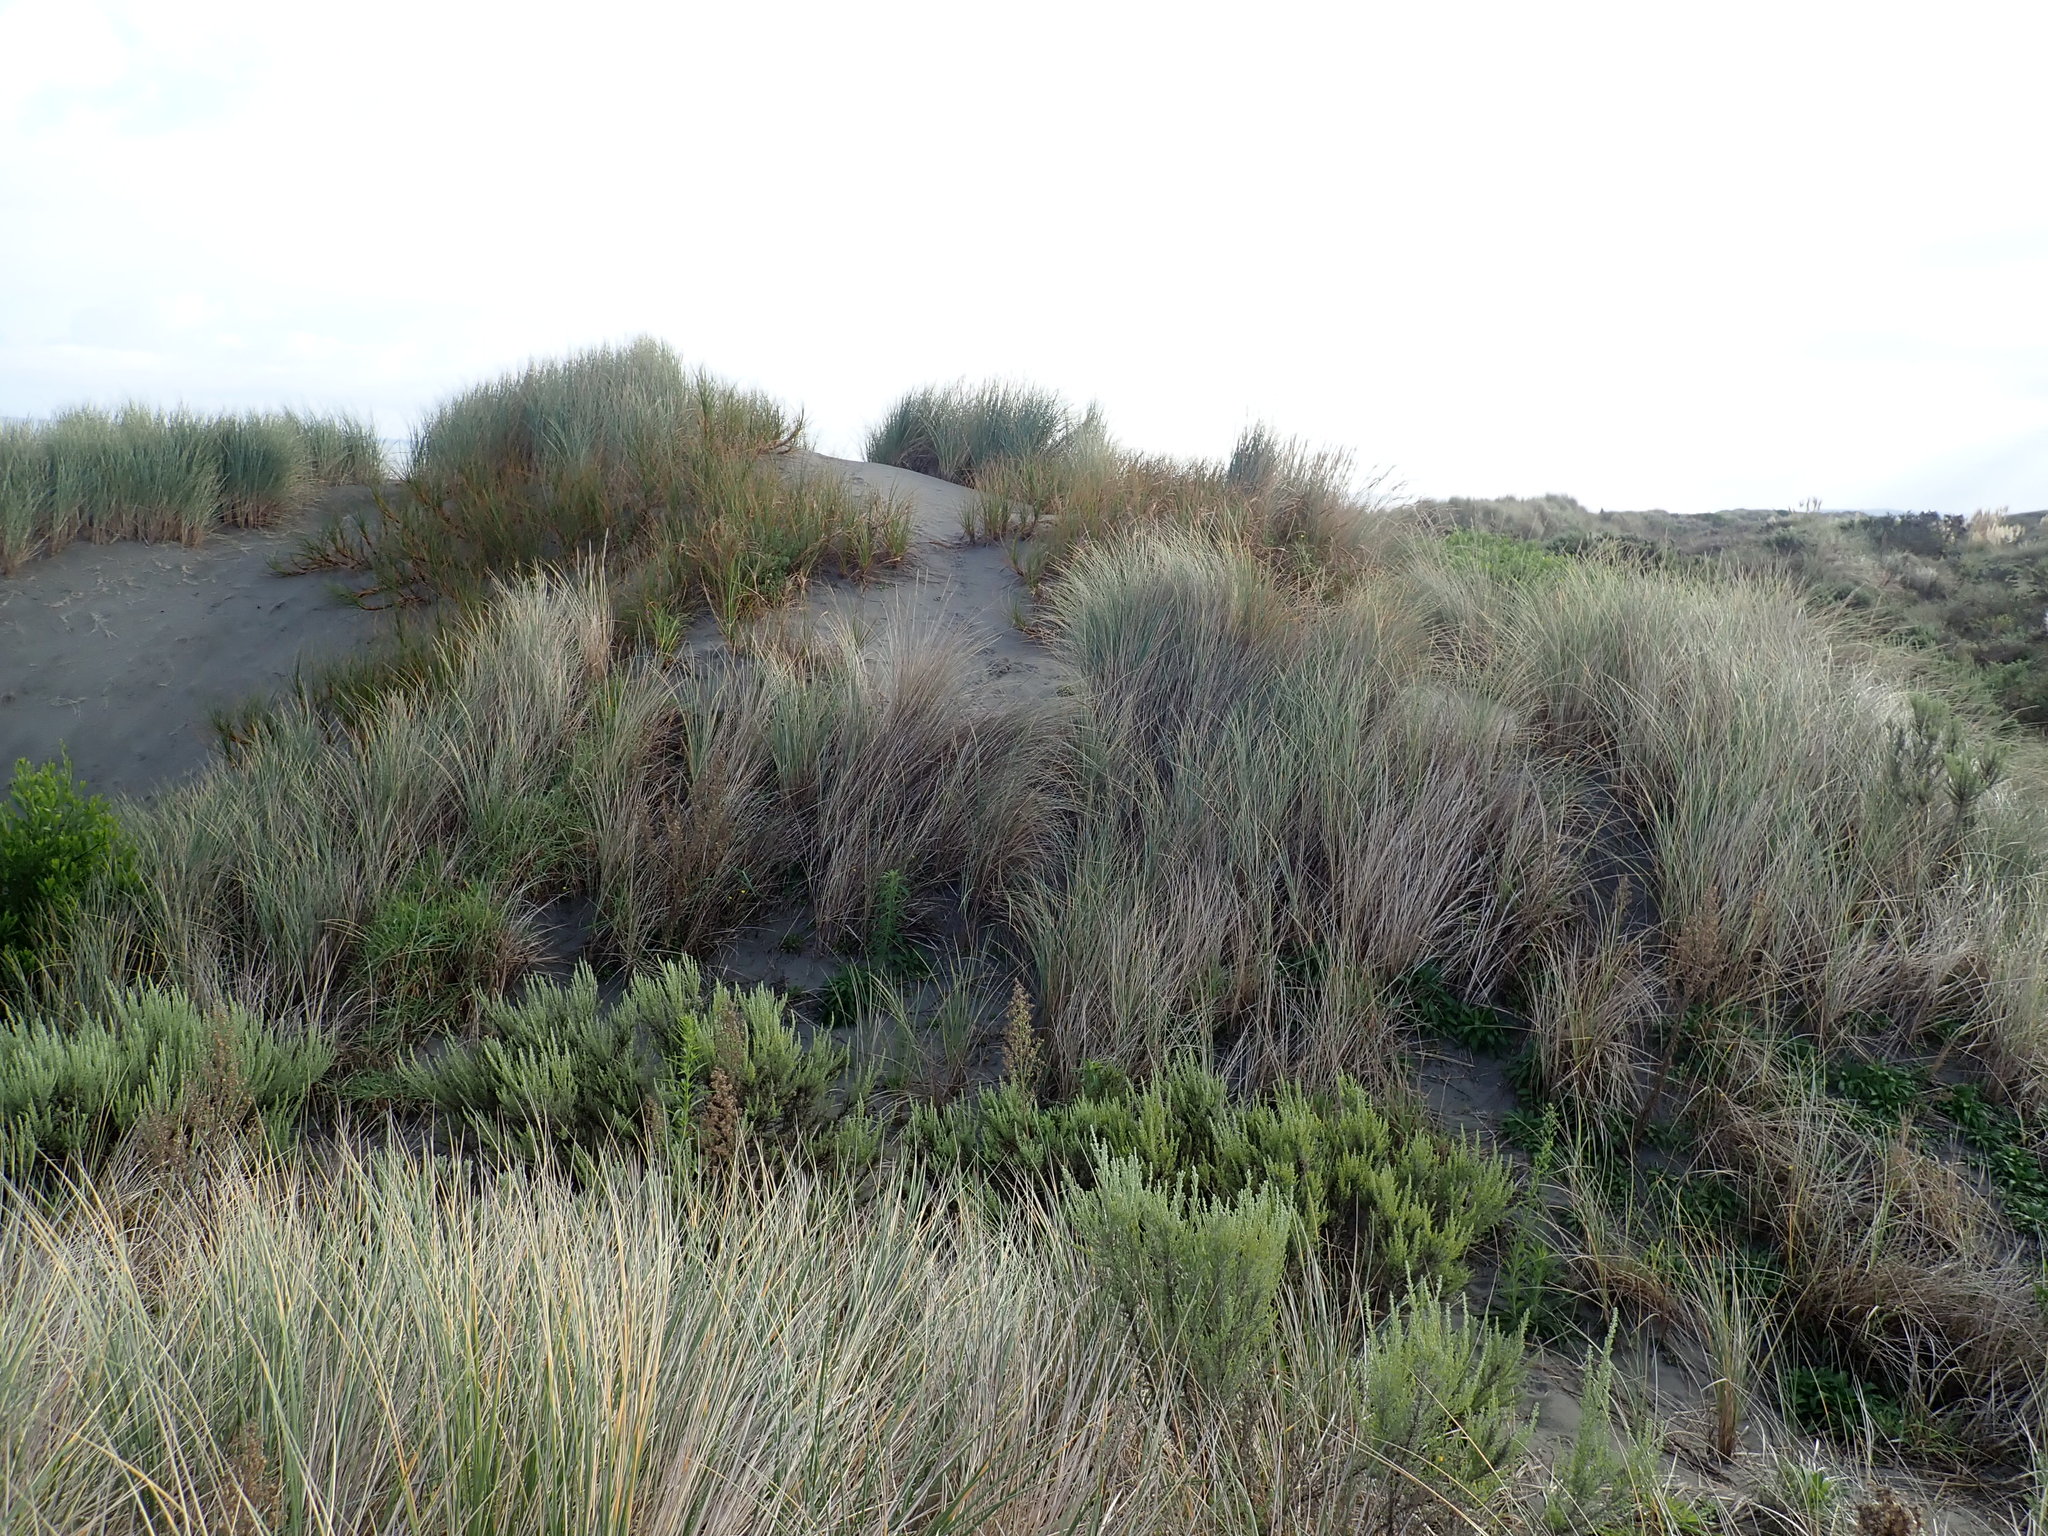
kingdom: Plantae
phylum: Tracheophyta
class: Liliopsida
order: Poales
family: Cyperaceae
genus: Ficinia
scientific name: Ficinia spiralis
